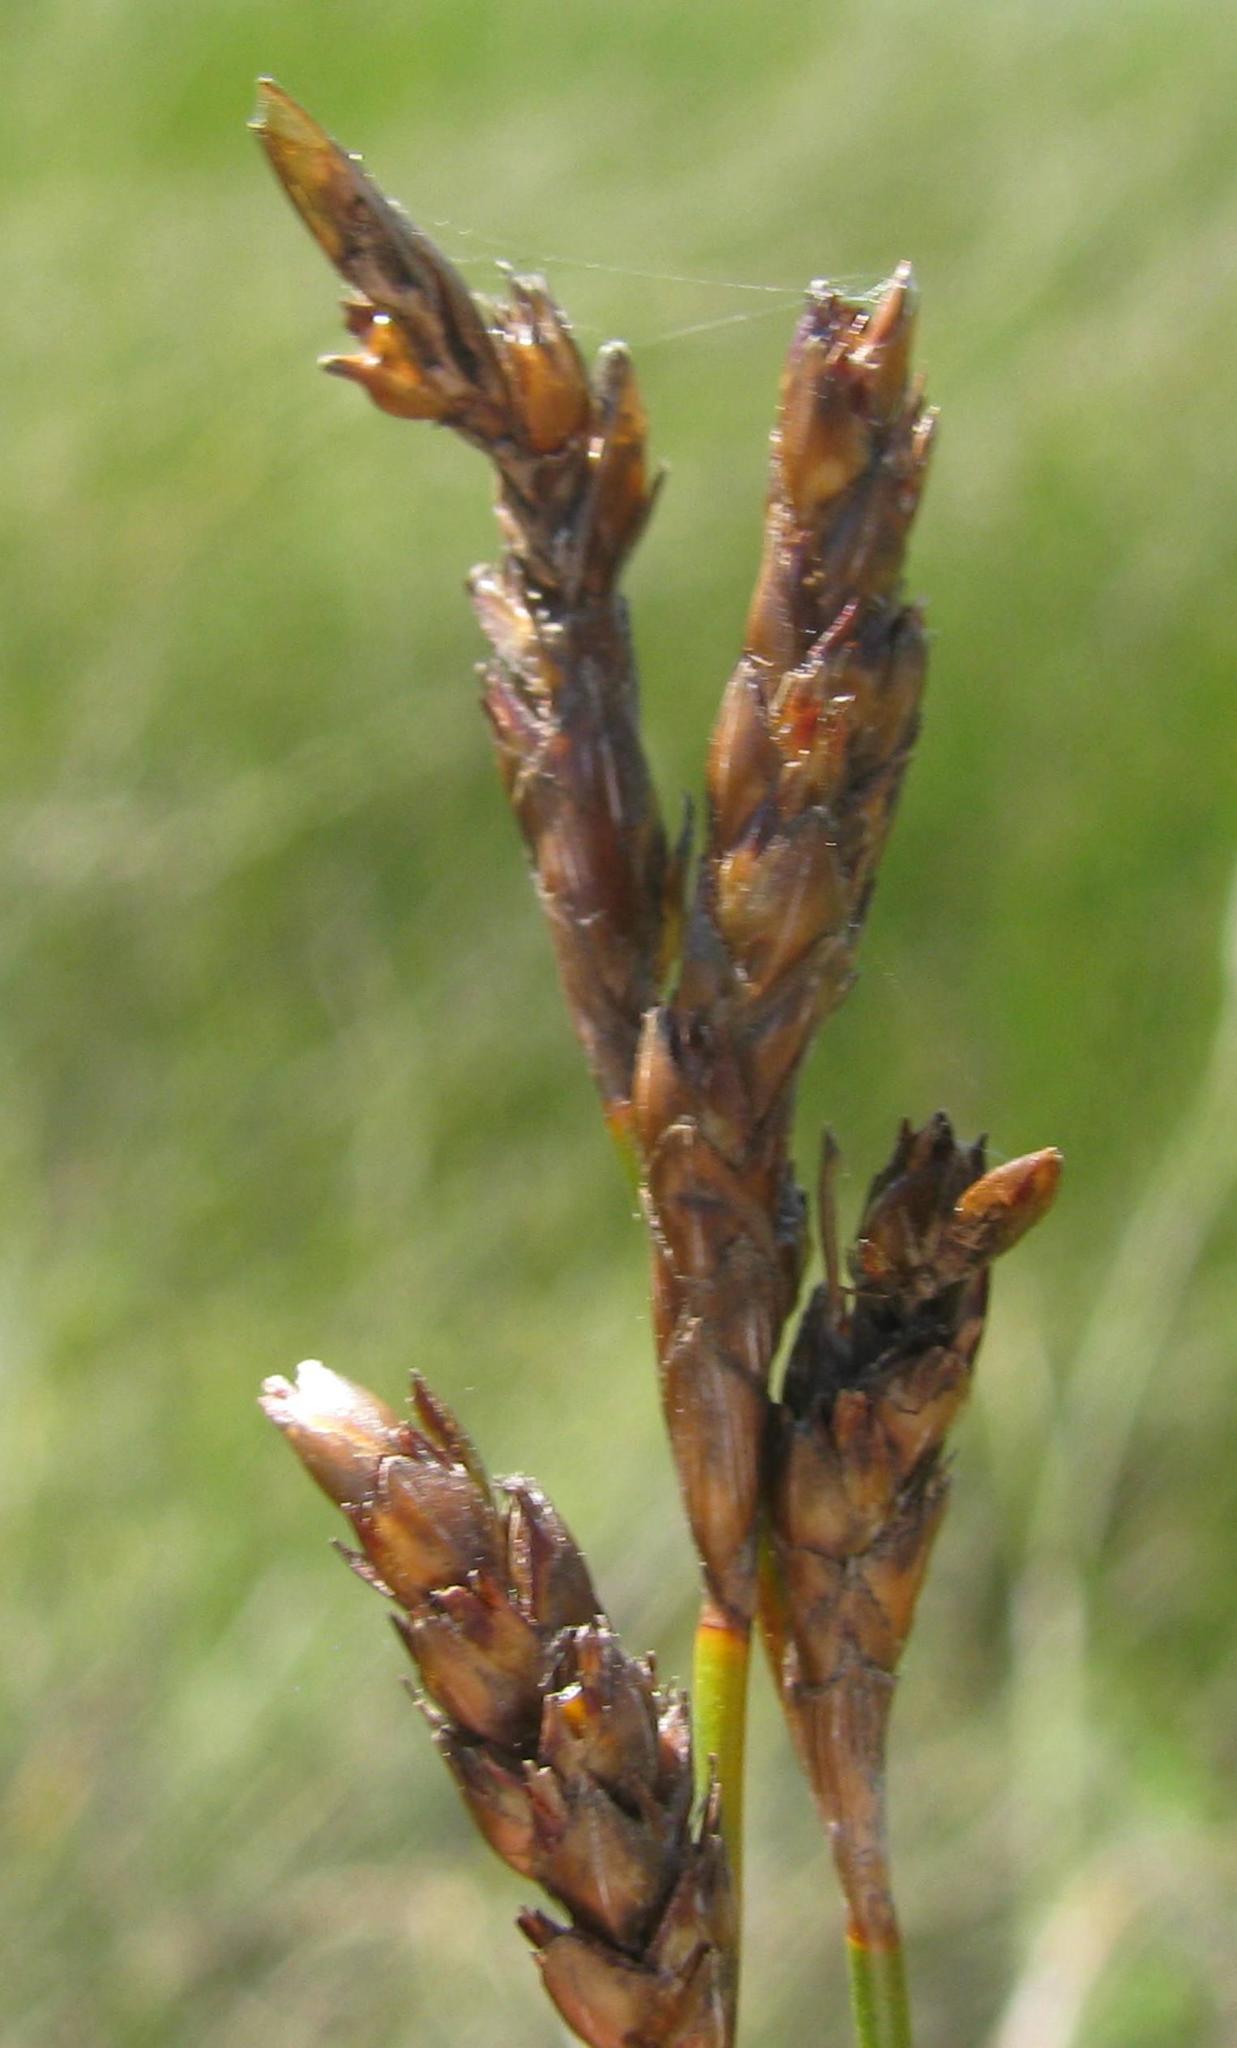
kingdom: Plantae
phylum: Tracheophyta
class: Liliopsida
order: Poales
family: Restionaceae
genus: Restio
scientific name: Restio helenae
